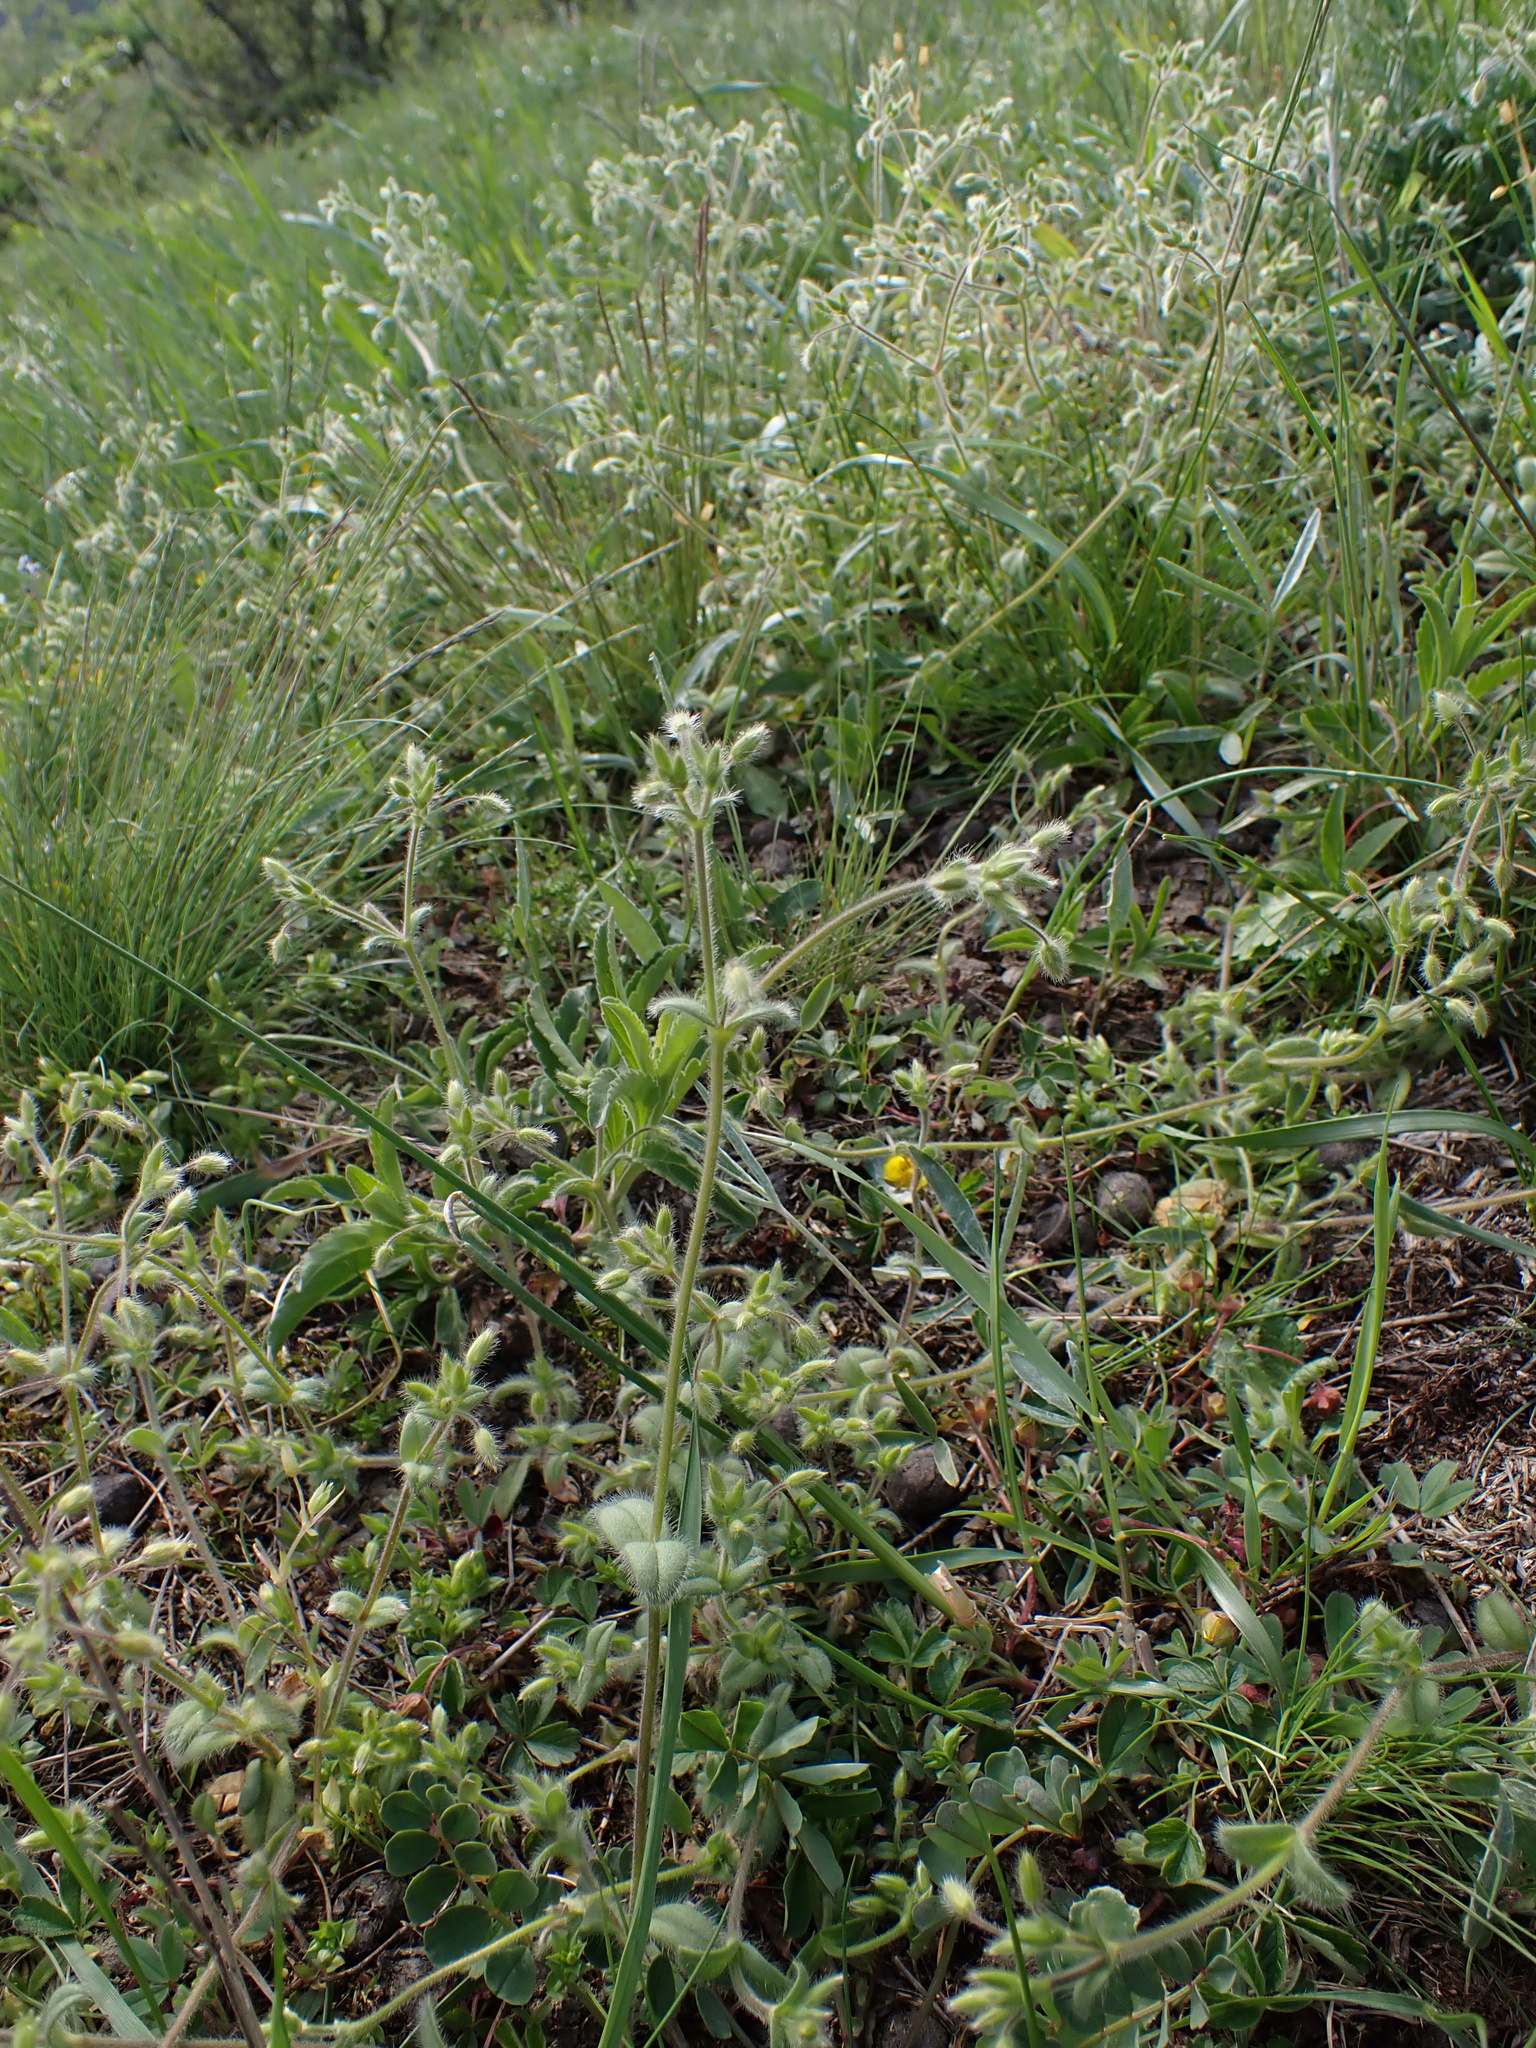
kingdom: Plantae
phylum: Tracheophyta
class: Magnoliopsida
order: Caryophyllales
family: Caryophyllaceae
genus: Cerastium
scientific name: Cerastium brachypetalum
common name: Grey mouse-ear
